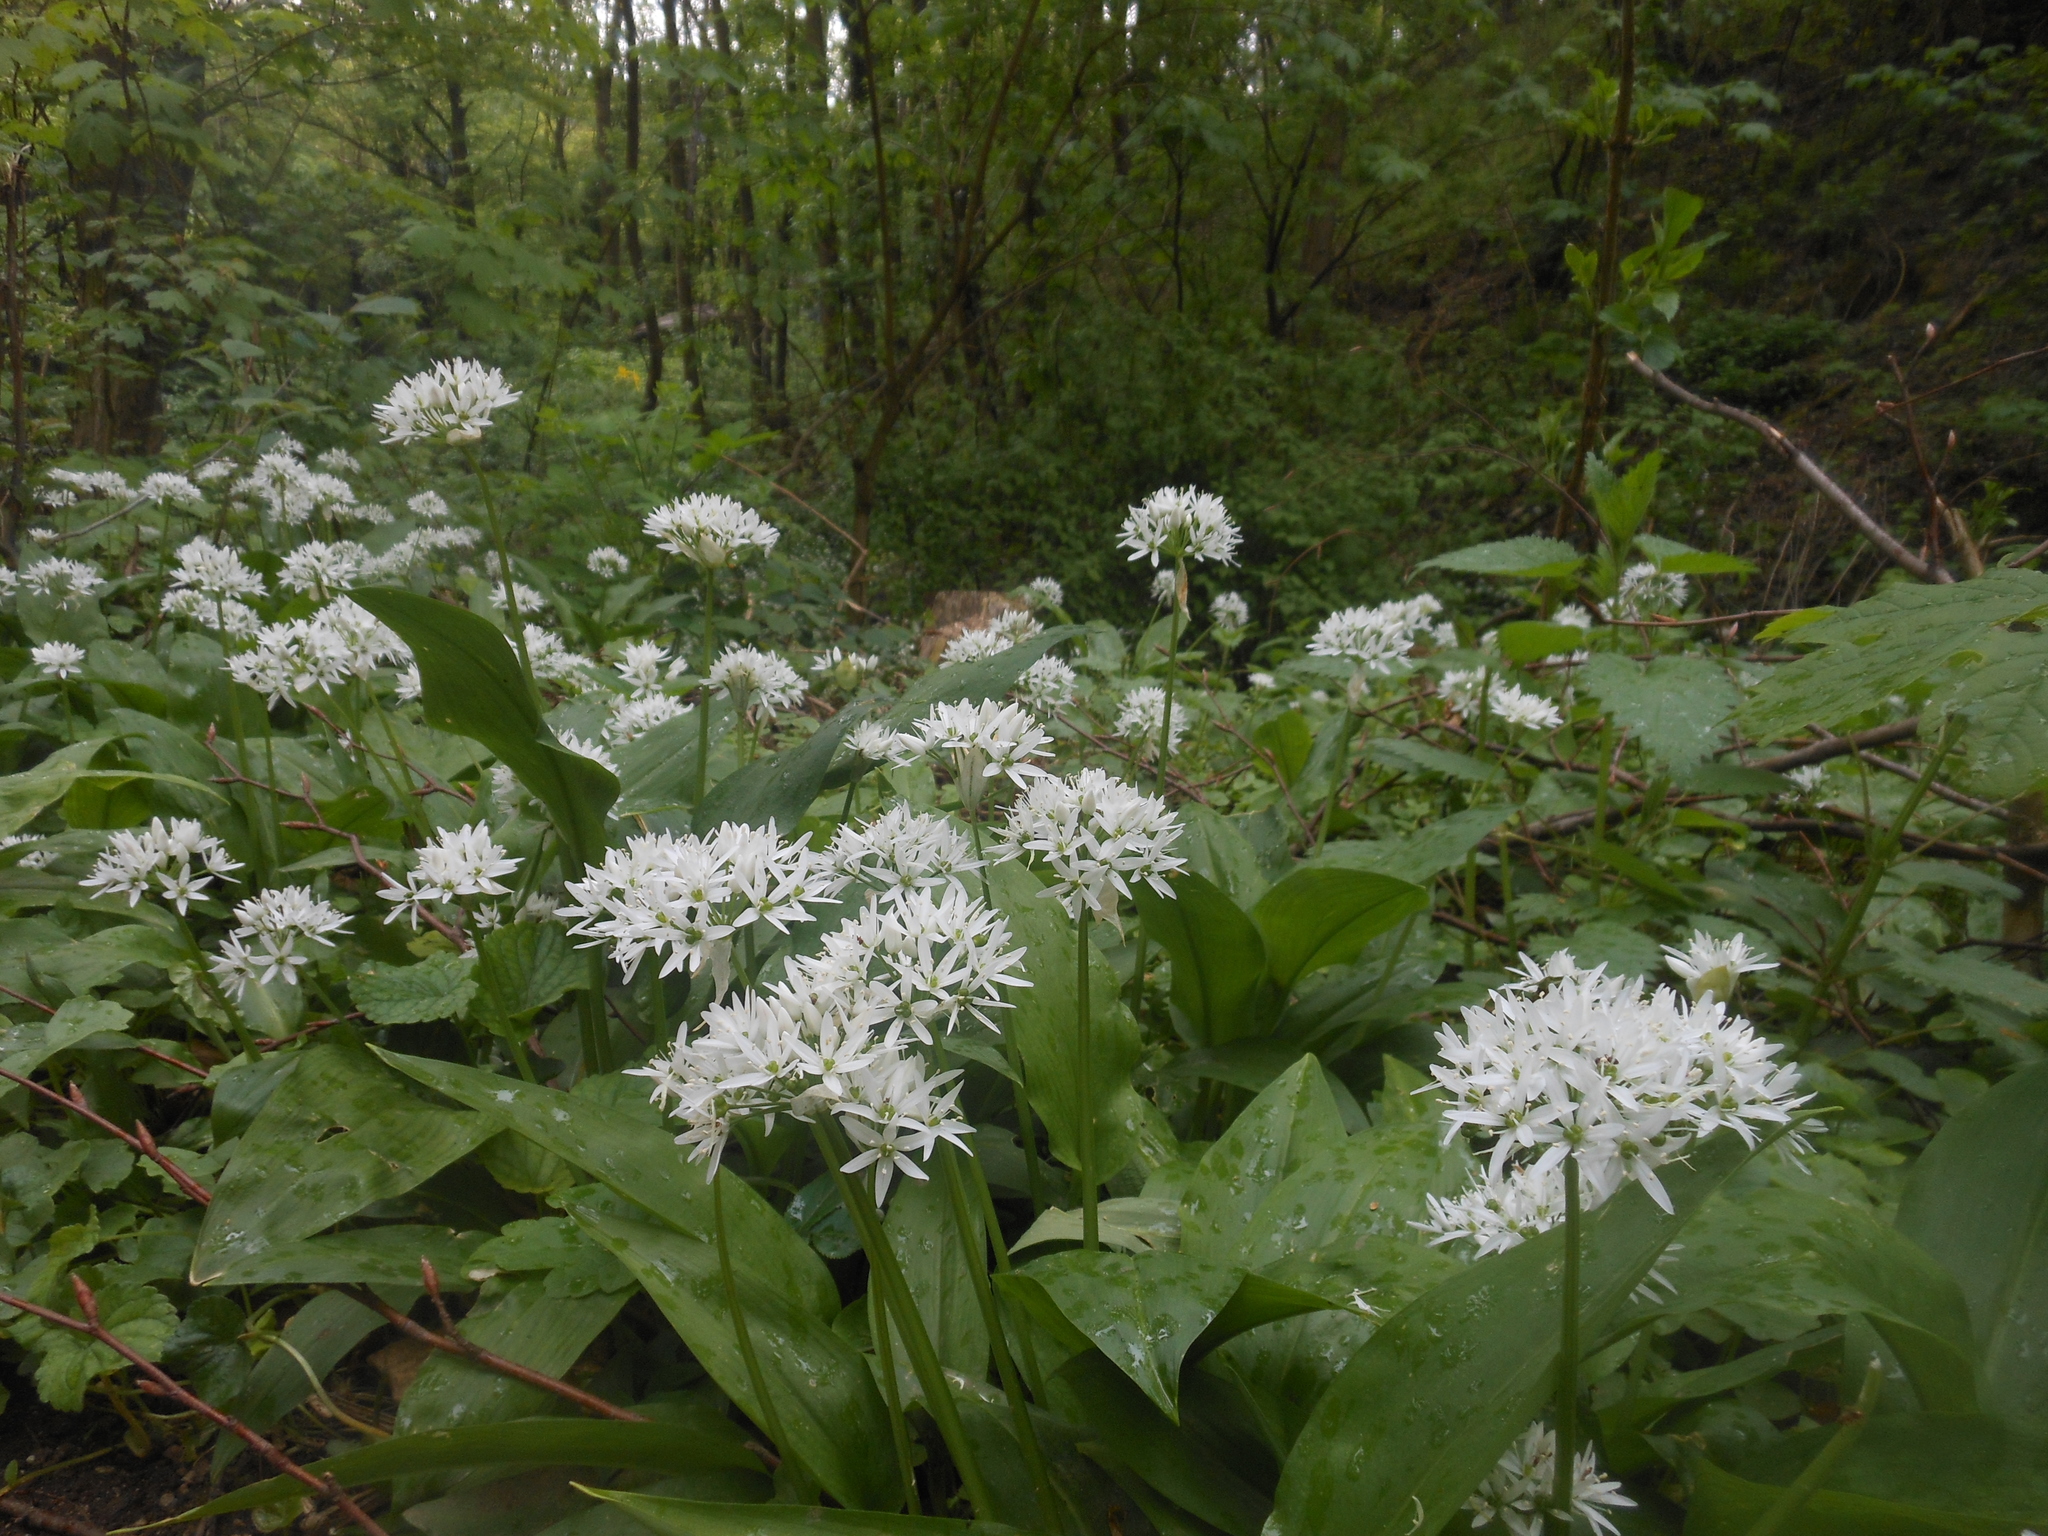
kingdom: Plantae
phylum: Tracheophyta
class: Liliopsida
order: Asparagales
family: Amaryllidaceae
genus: Allium
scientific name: Allium ursinum
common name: Ramsons
